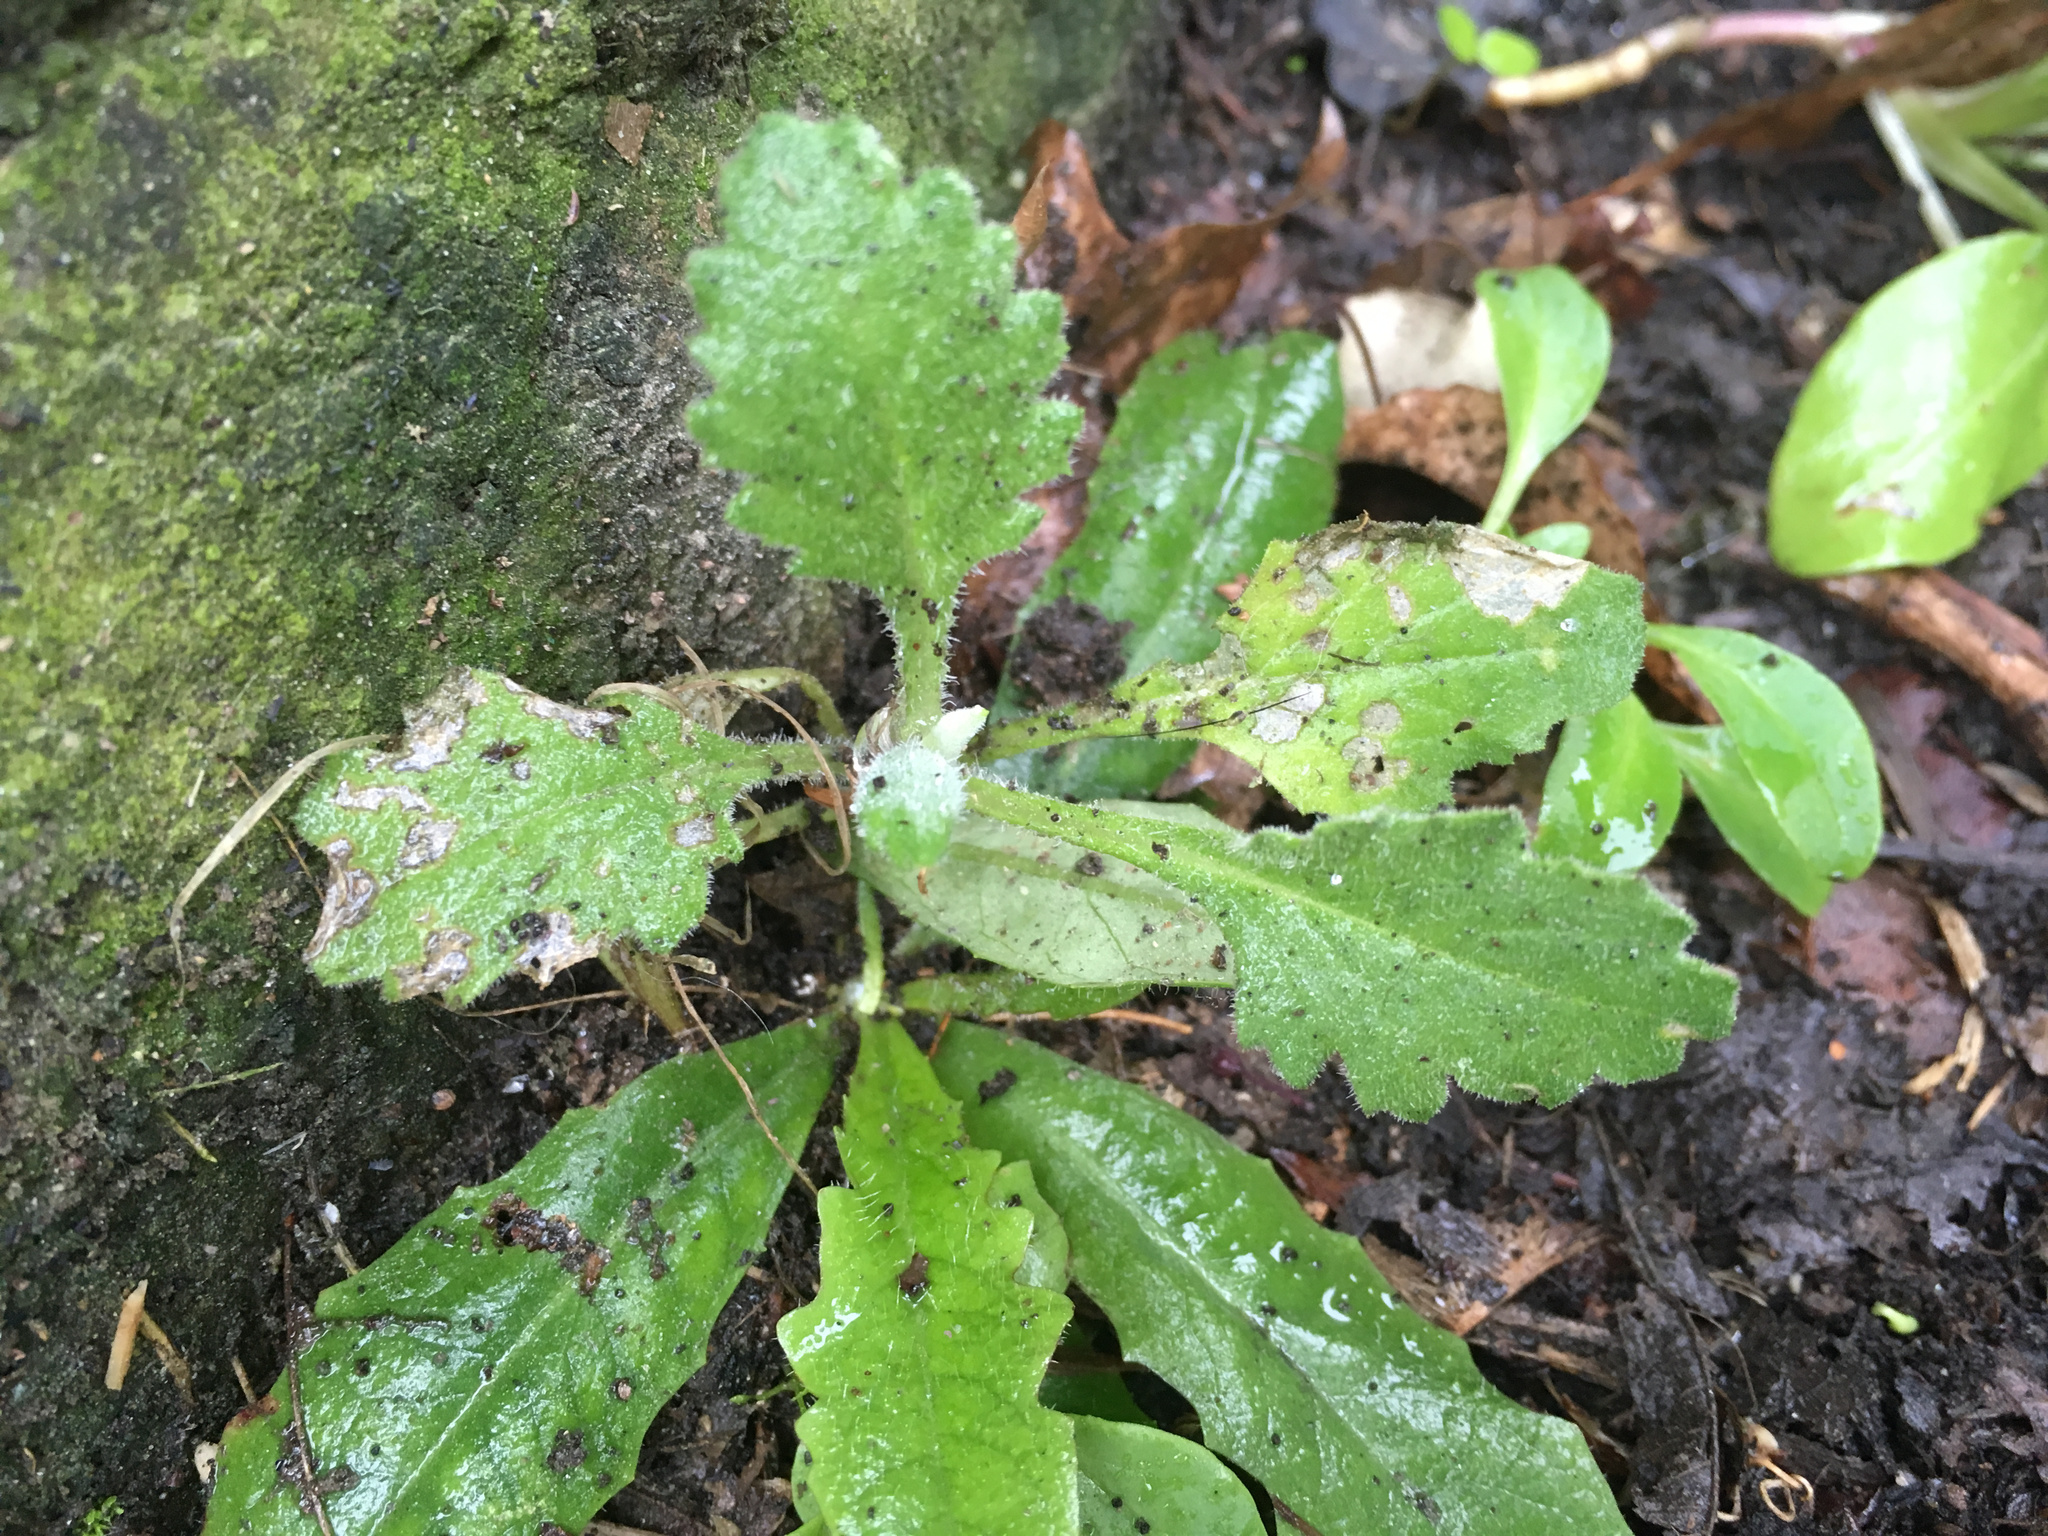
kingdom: Plantae
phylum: Tracheophyta
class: Magnoliopsida
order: Asterales
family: Asteraceae
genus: Senecio
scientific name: Senecio glomeratus
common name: Cutleaf burnweed
